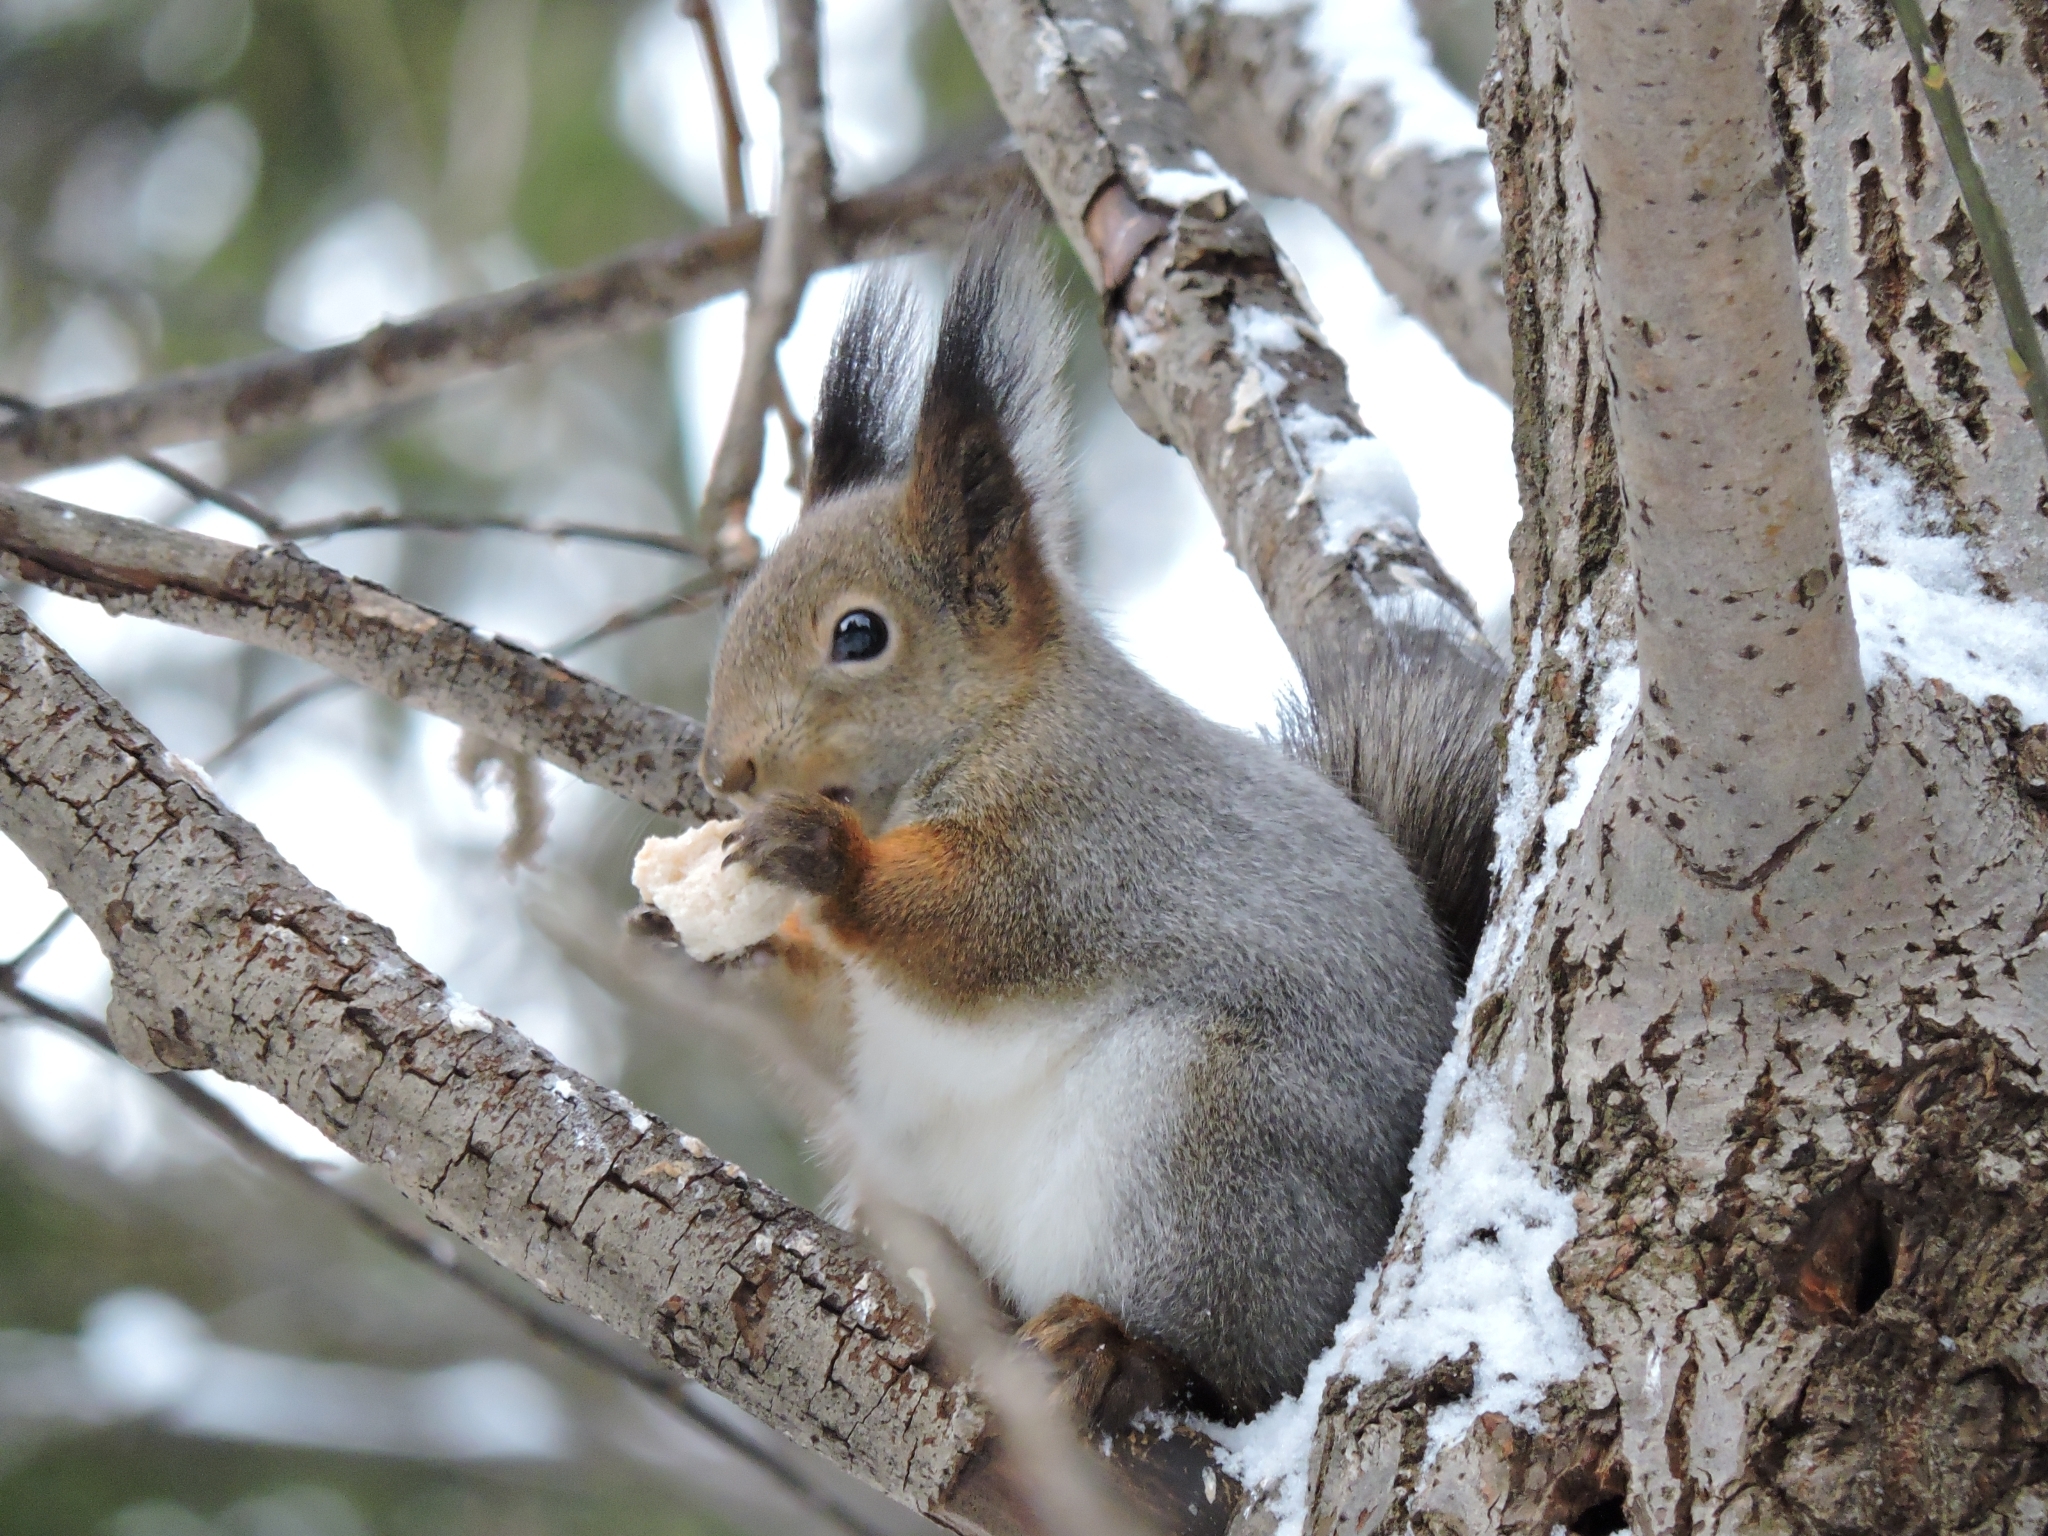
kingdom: Animalia
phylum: Chordata
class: Mammalia
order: Rodentia
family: Sciuridae
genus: Sciurus
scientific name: Sciurus vulgaris
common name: Eurasian red squirrel
